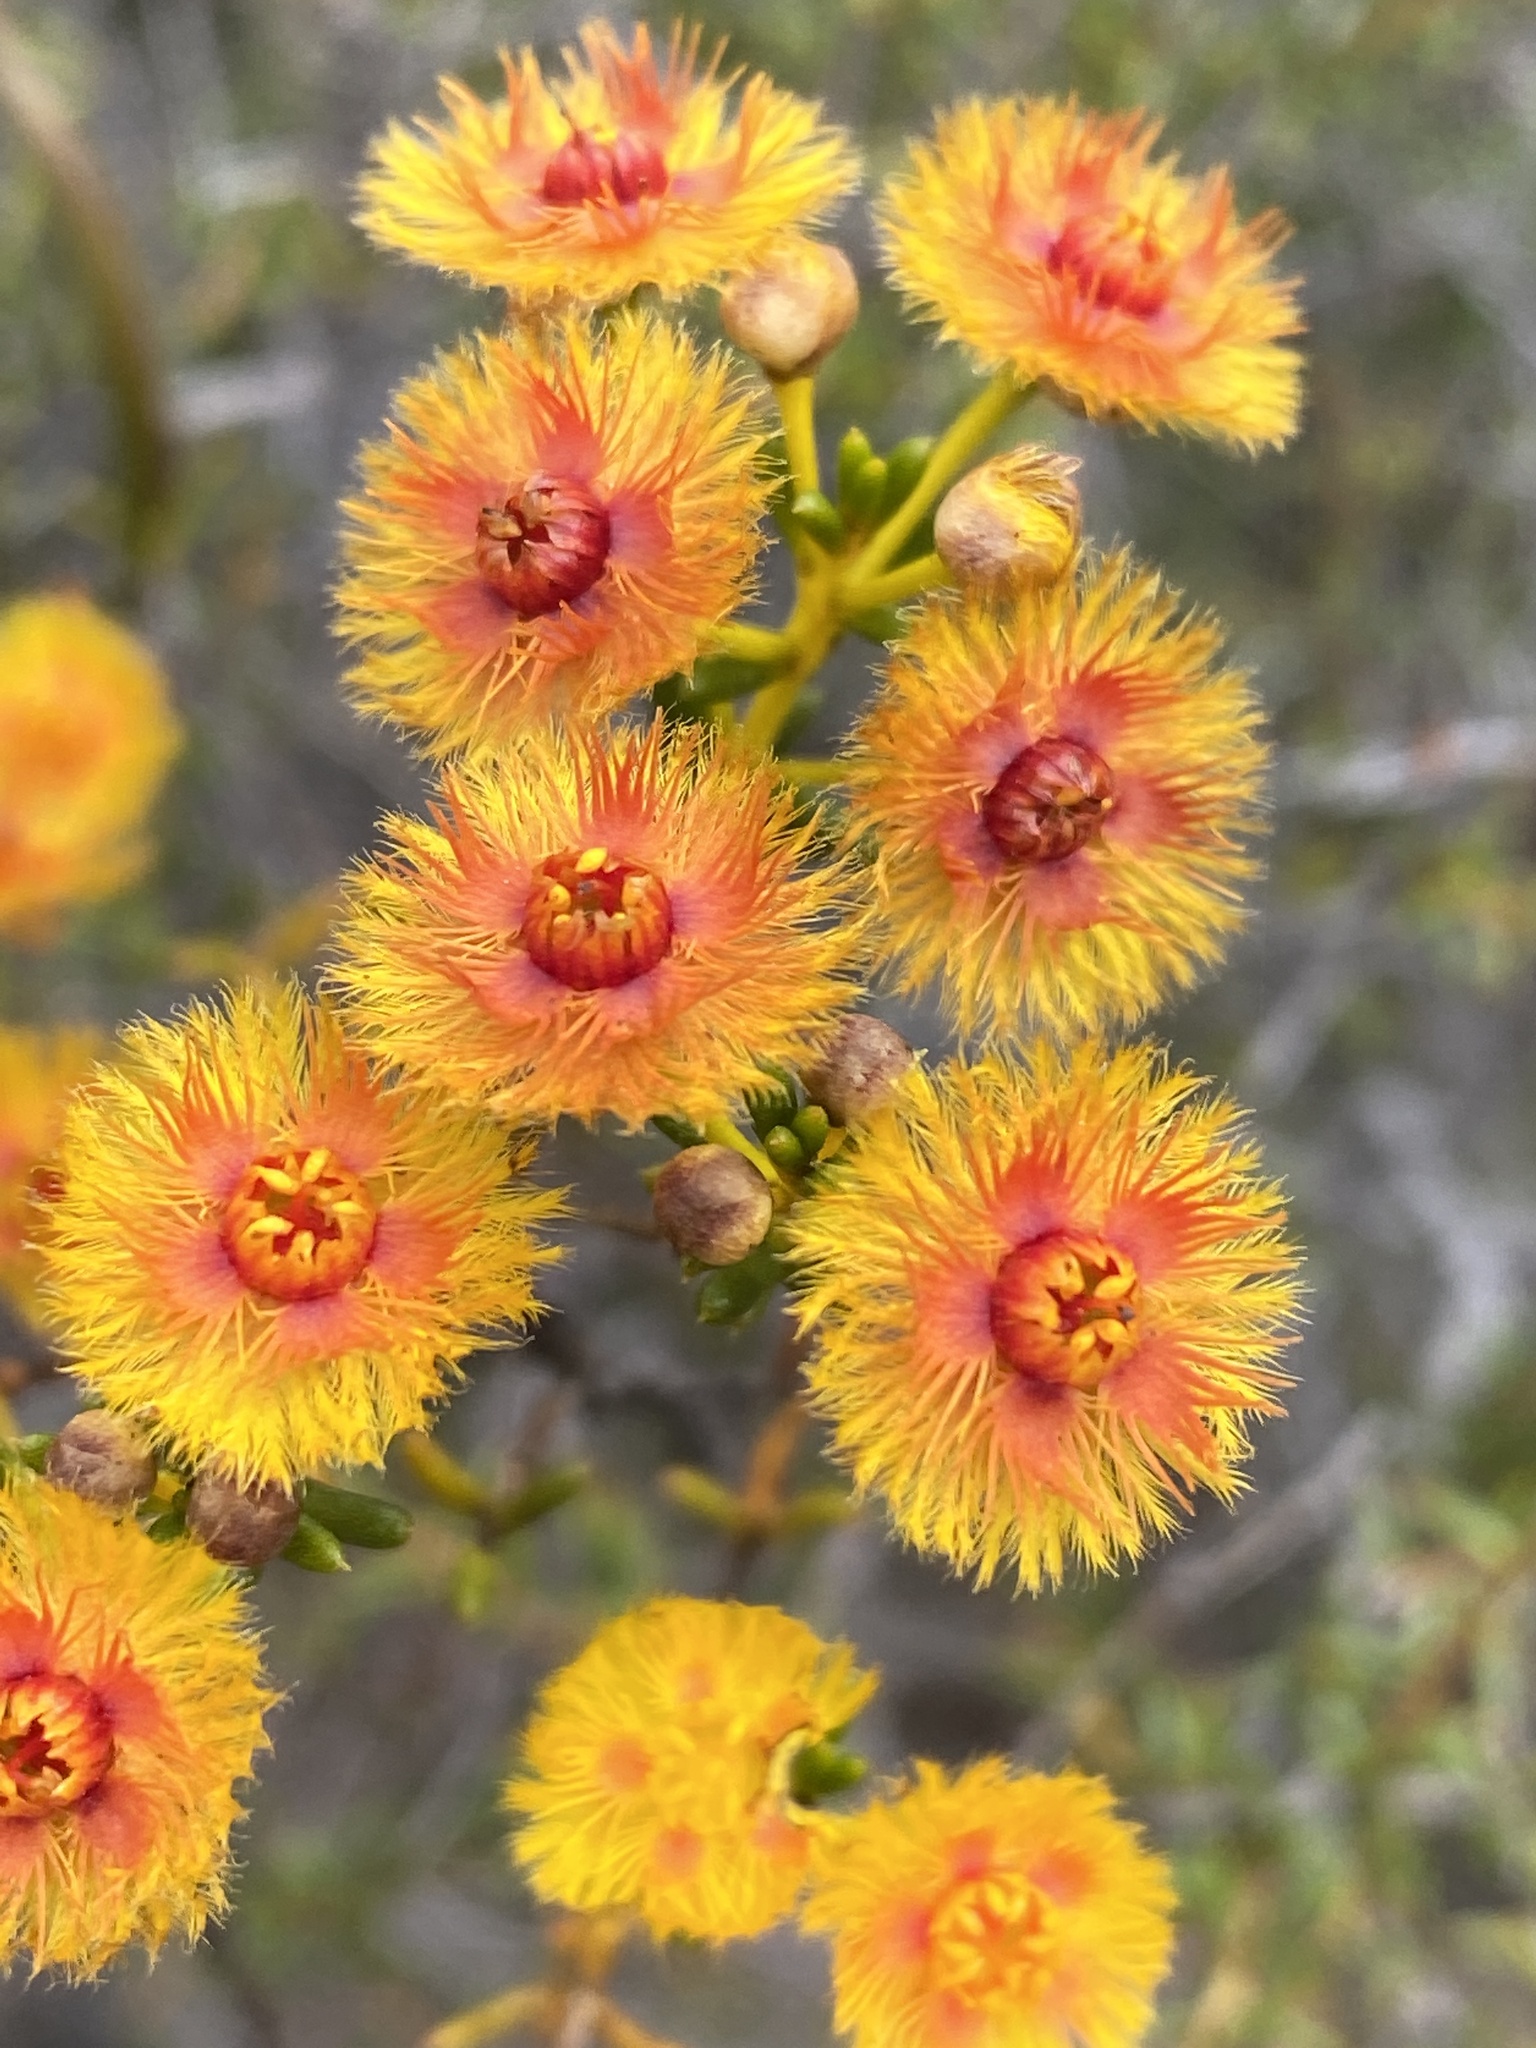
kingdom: Plantae
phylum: Tracheophyta
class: Magnoliopsida
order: Myrtales
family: Myrtaceae
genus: Verticordia
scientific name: Verticordia grandiflora
